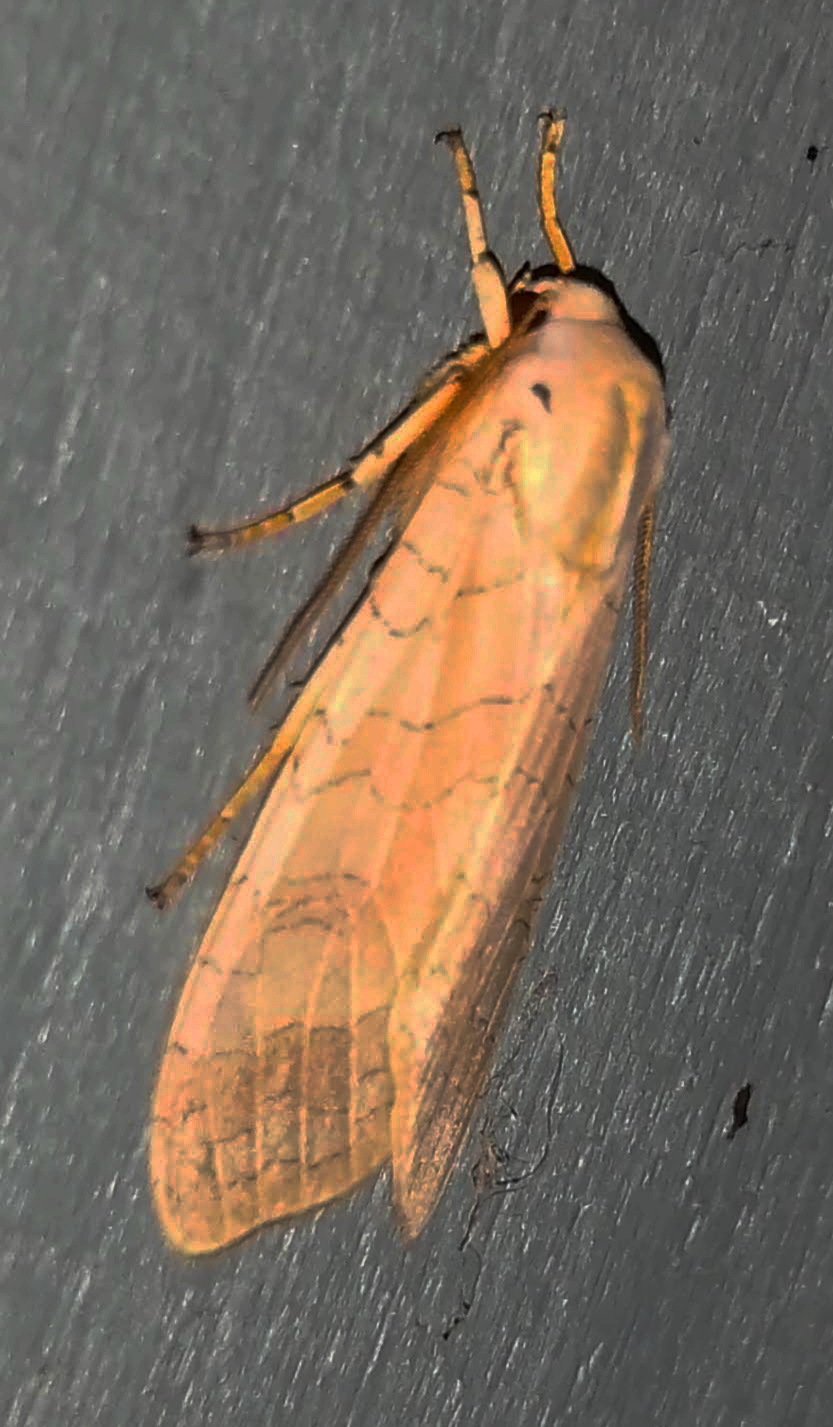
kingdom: Animalia
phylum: Arthropoda
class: Insecta
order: Lepidoptera
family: Erebidae
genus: Halysidota
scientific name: Halysidota tessellaris
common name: Banded tussock moth
